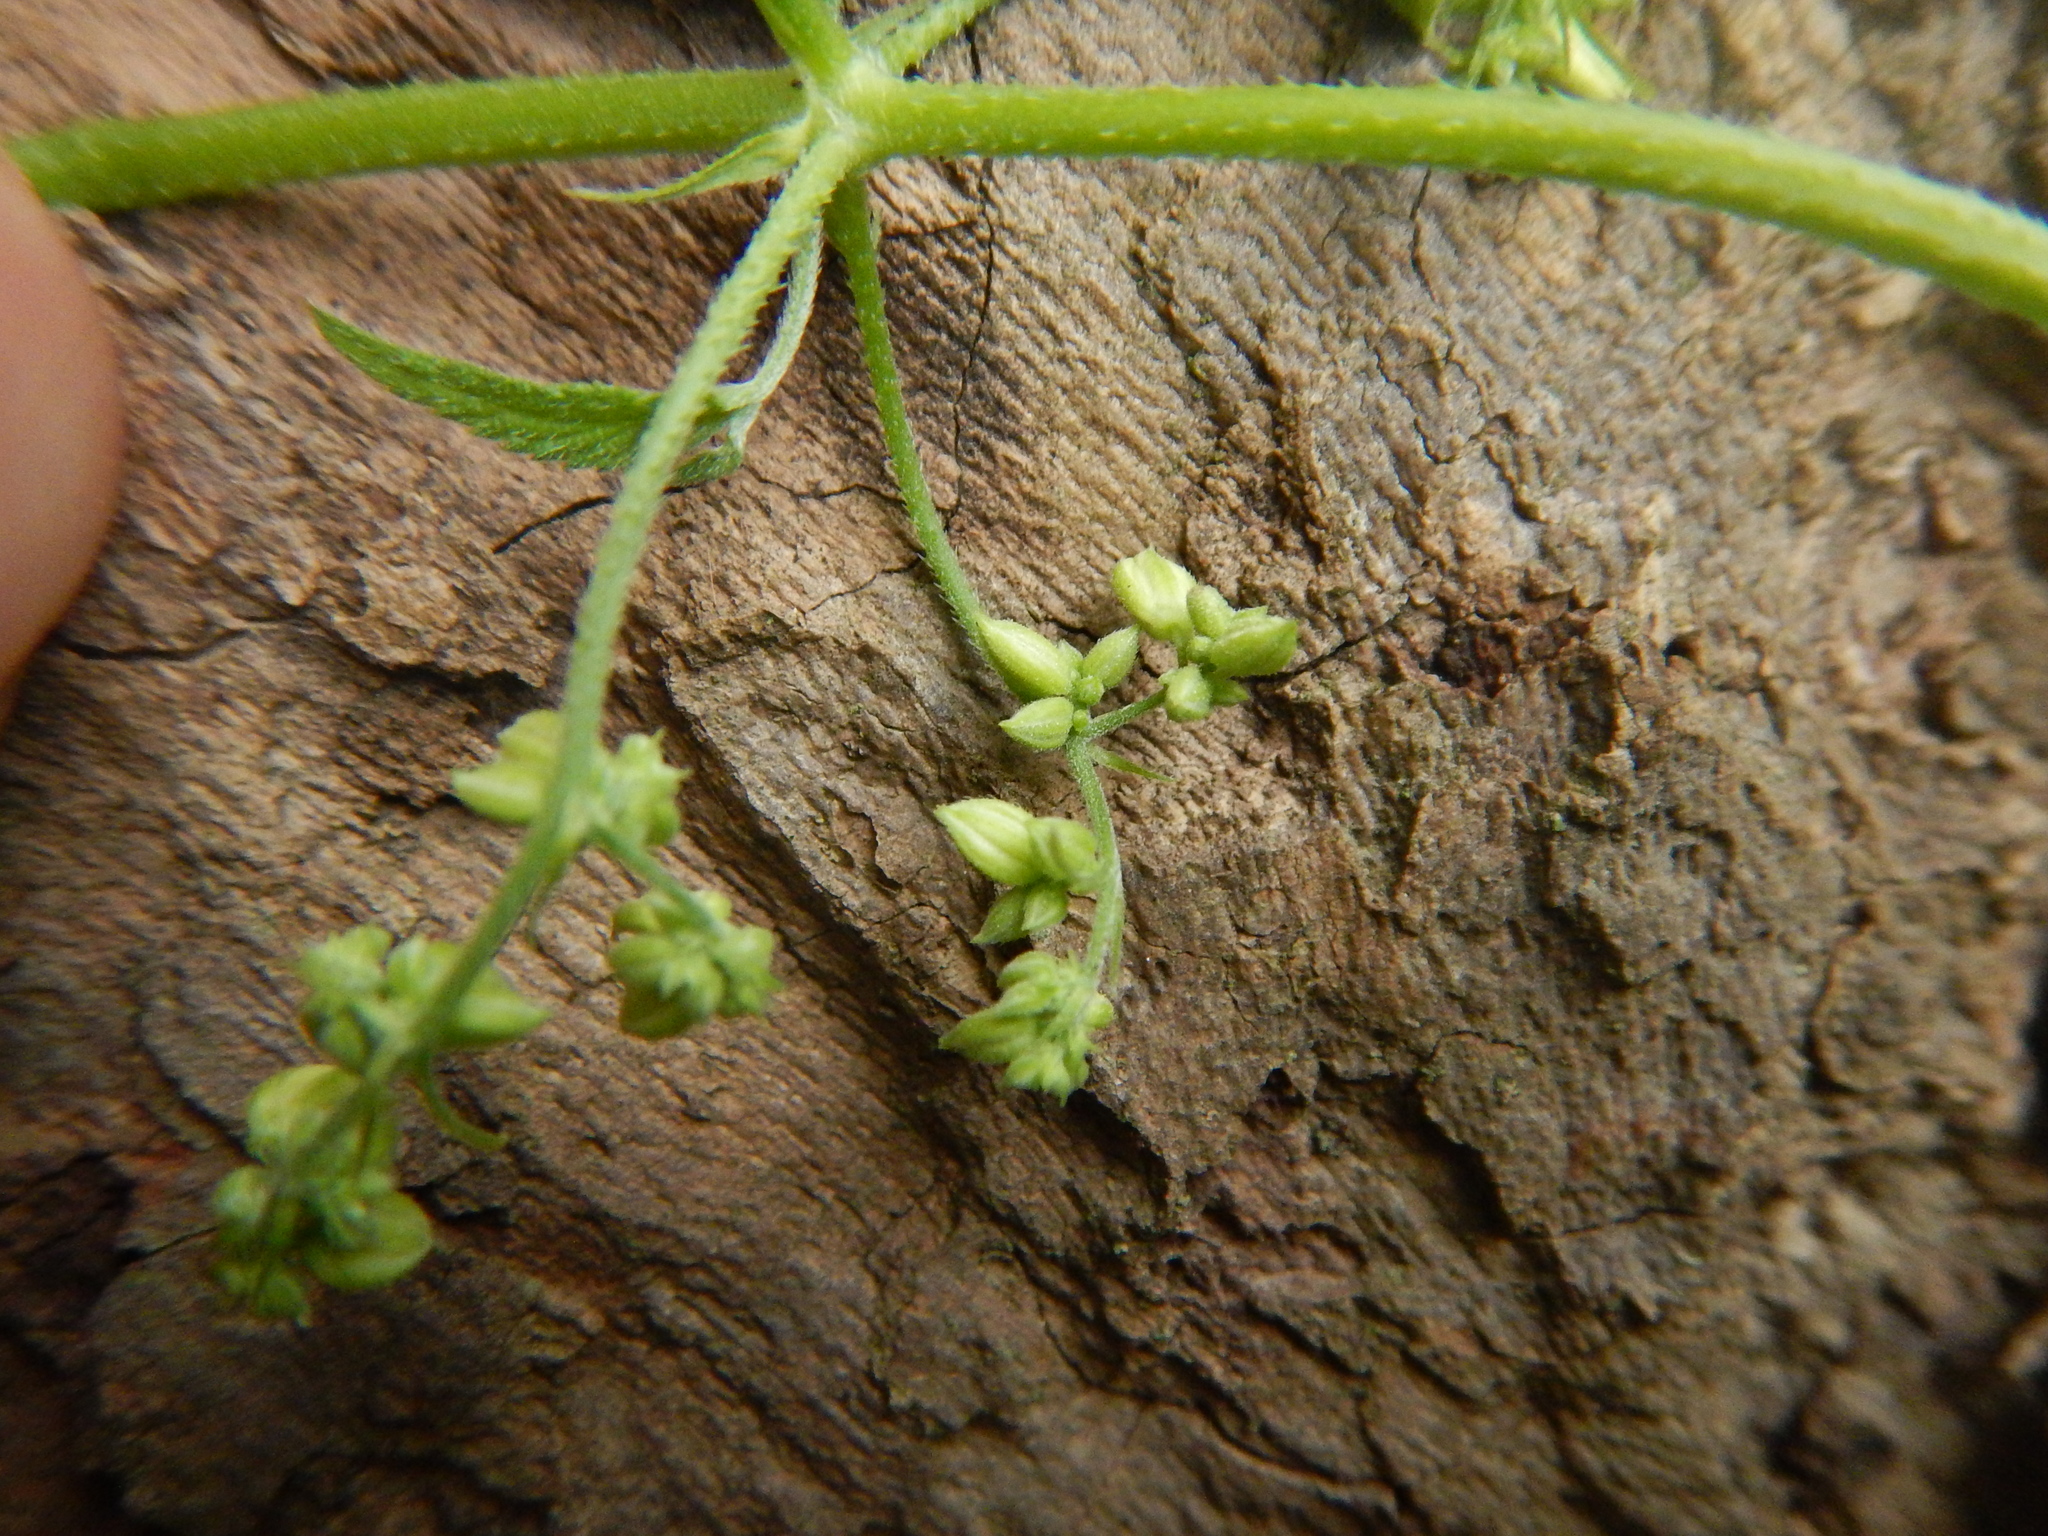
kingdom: Plantae
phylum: Tracheophyta
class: Magnoliopsida
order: Rosales
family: Cannabaceae
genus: Humulus
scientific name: Humulus scandens
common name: Japanese hop
